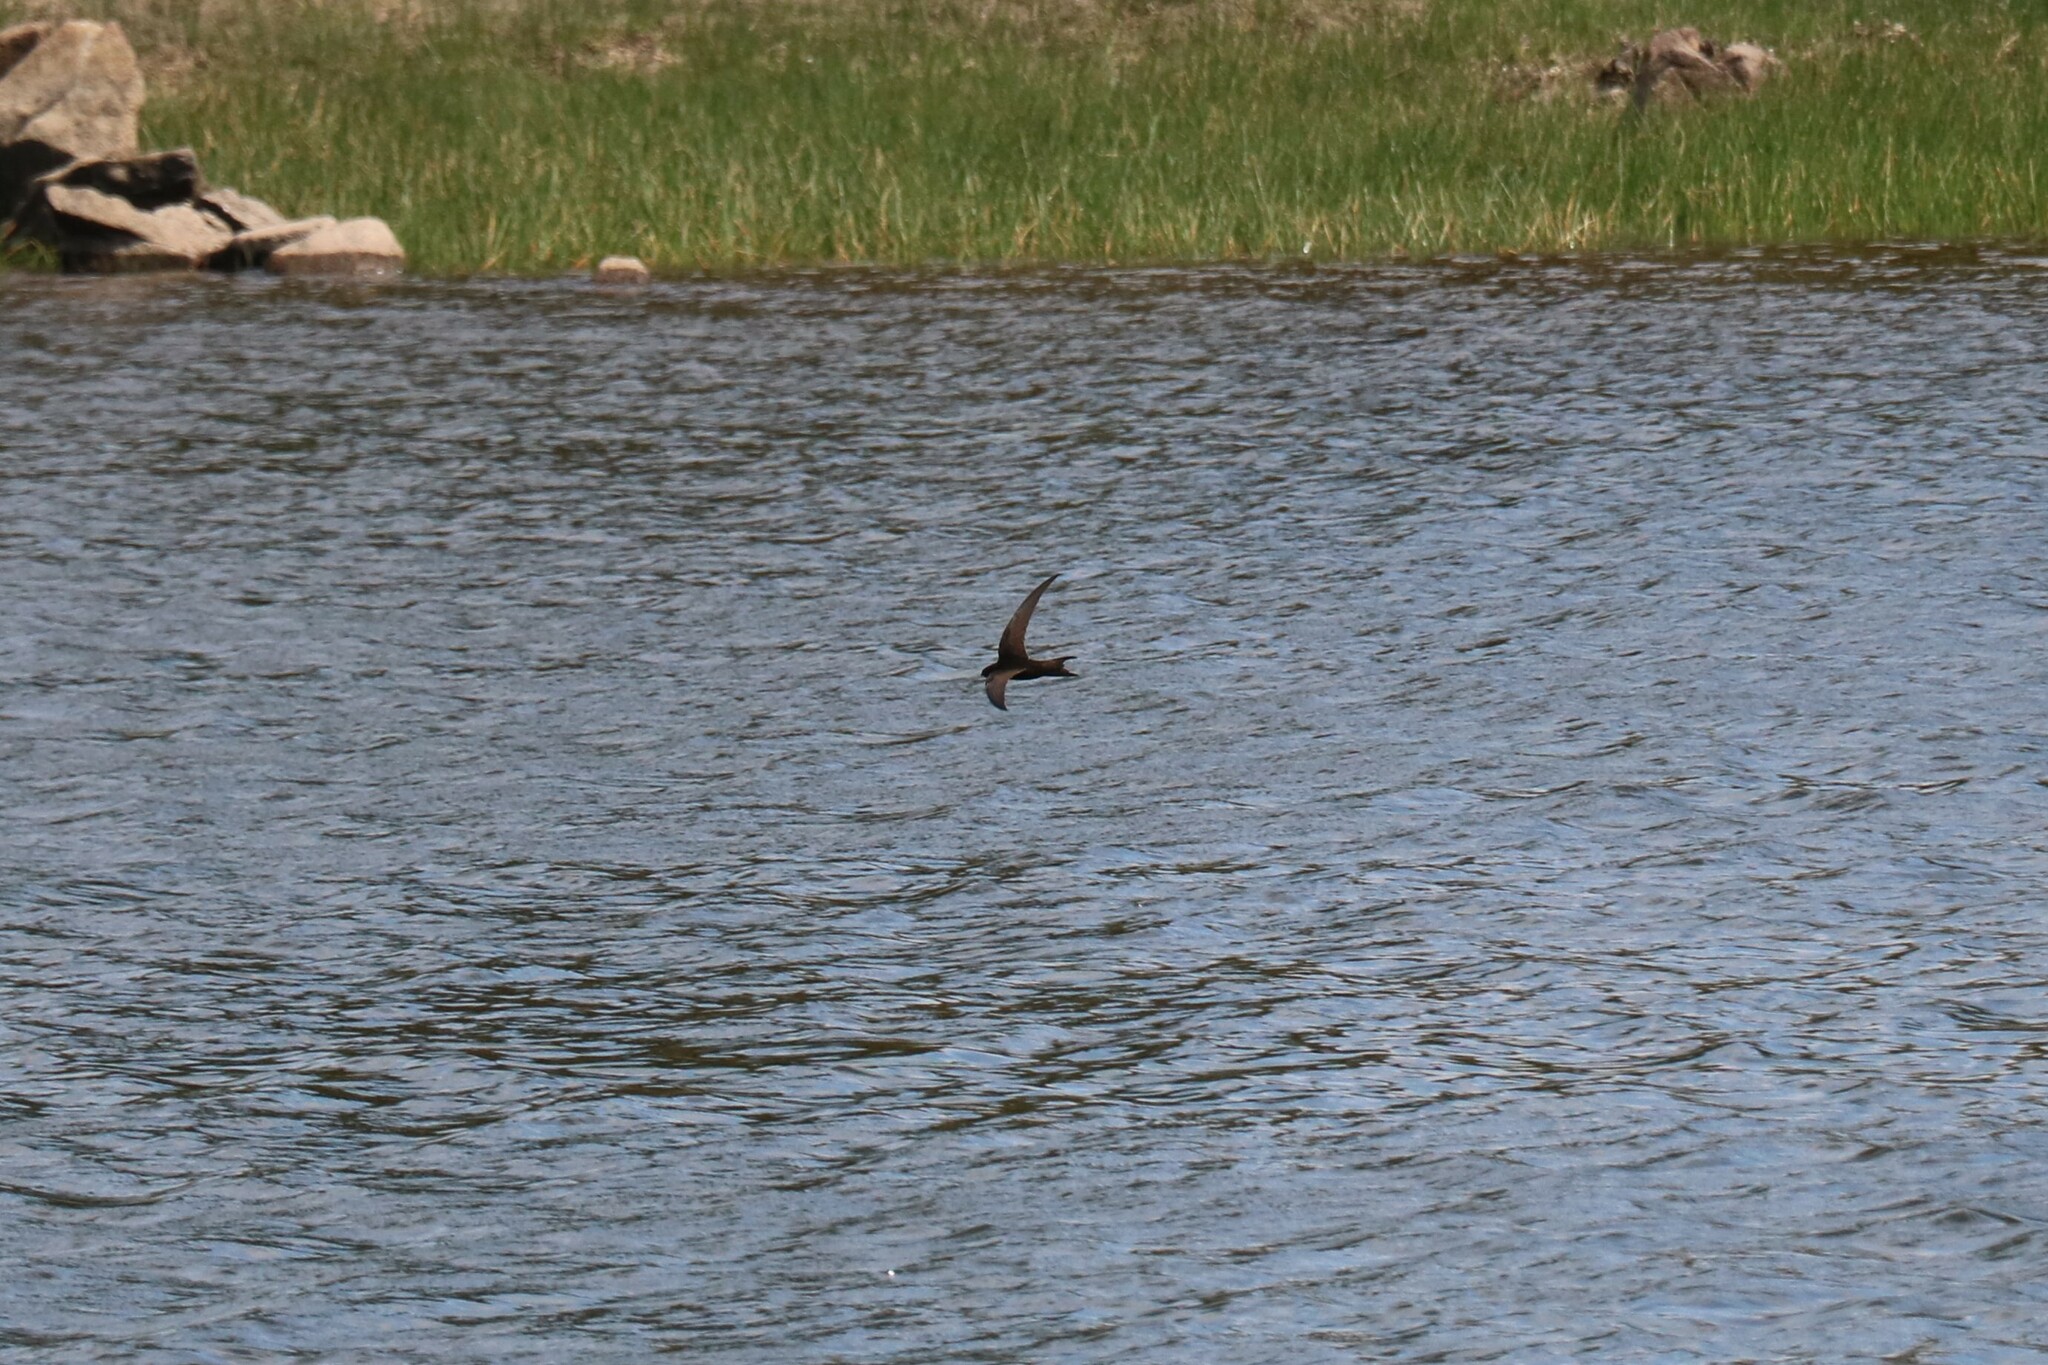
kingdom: Animalia
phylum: Chordata
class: Aves
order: Apodiformes
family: Apodidae
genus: Apus
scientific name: Apus apus
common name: Common swift
